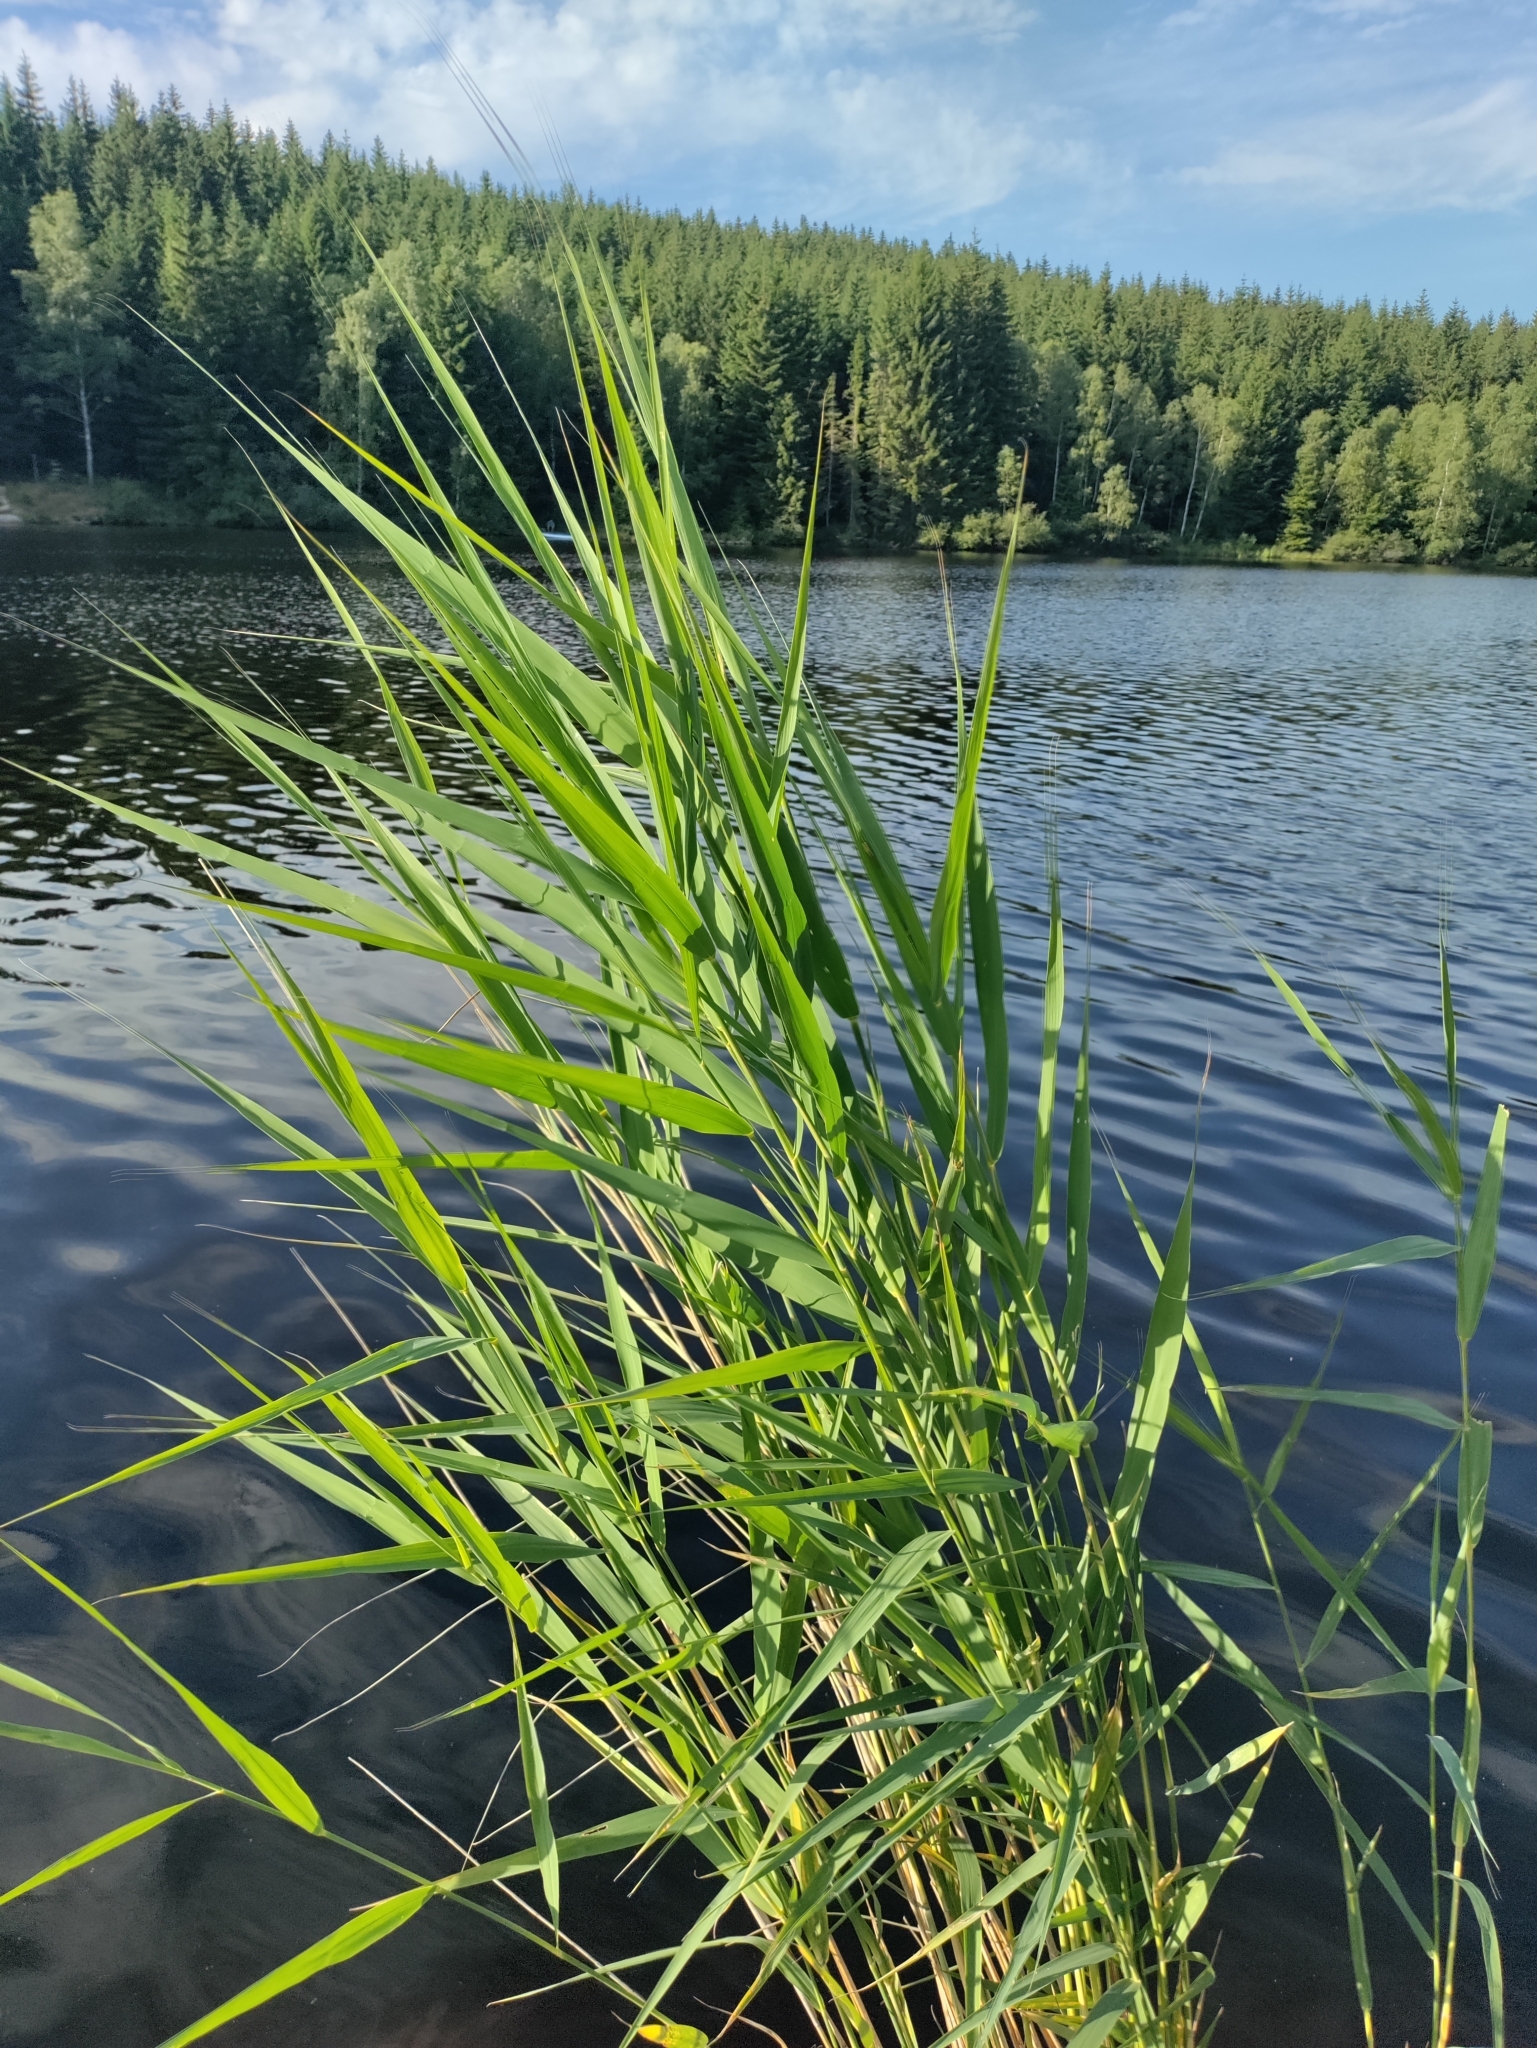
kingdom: Plantae
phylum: Tracheophyta
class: Liliopsida
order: Poales
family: Poaceae
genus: Phragmites
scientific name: Phragmites australis
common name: Common reed
